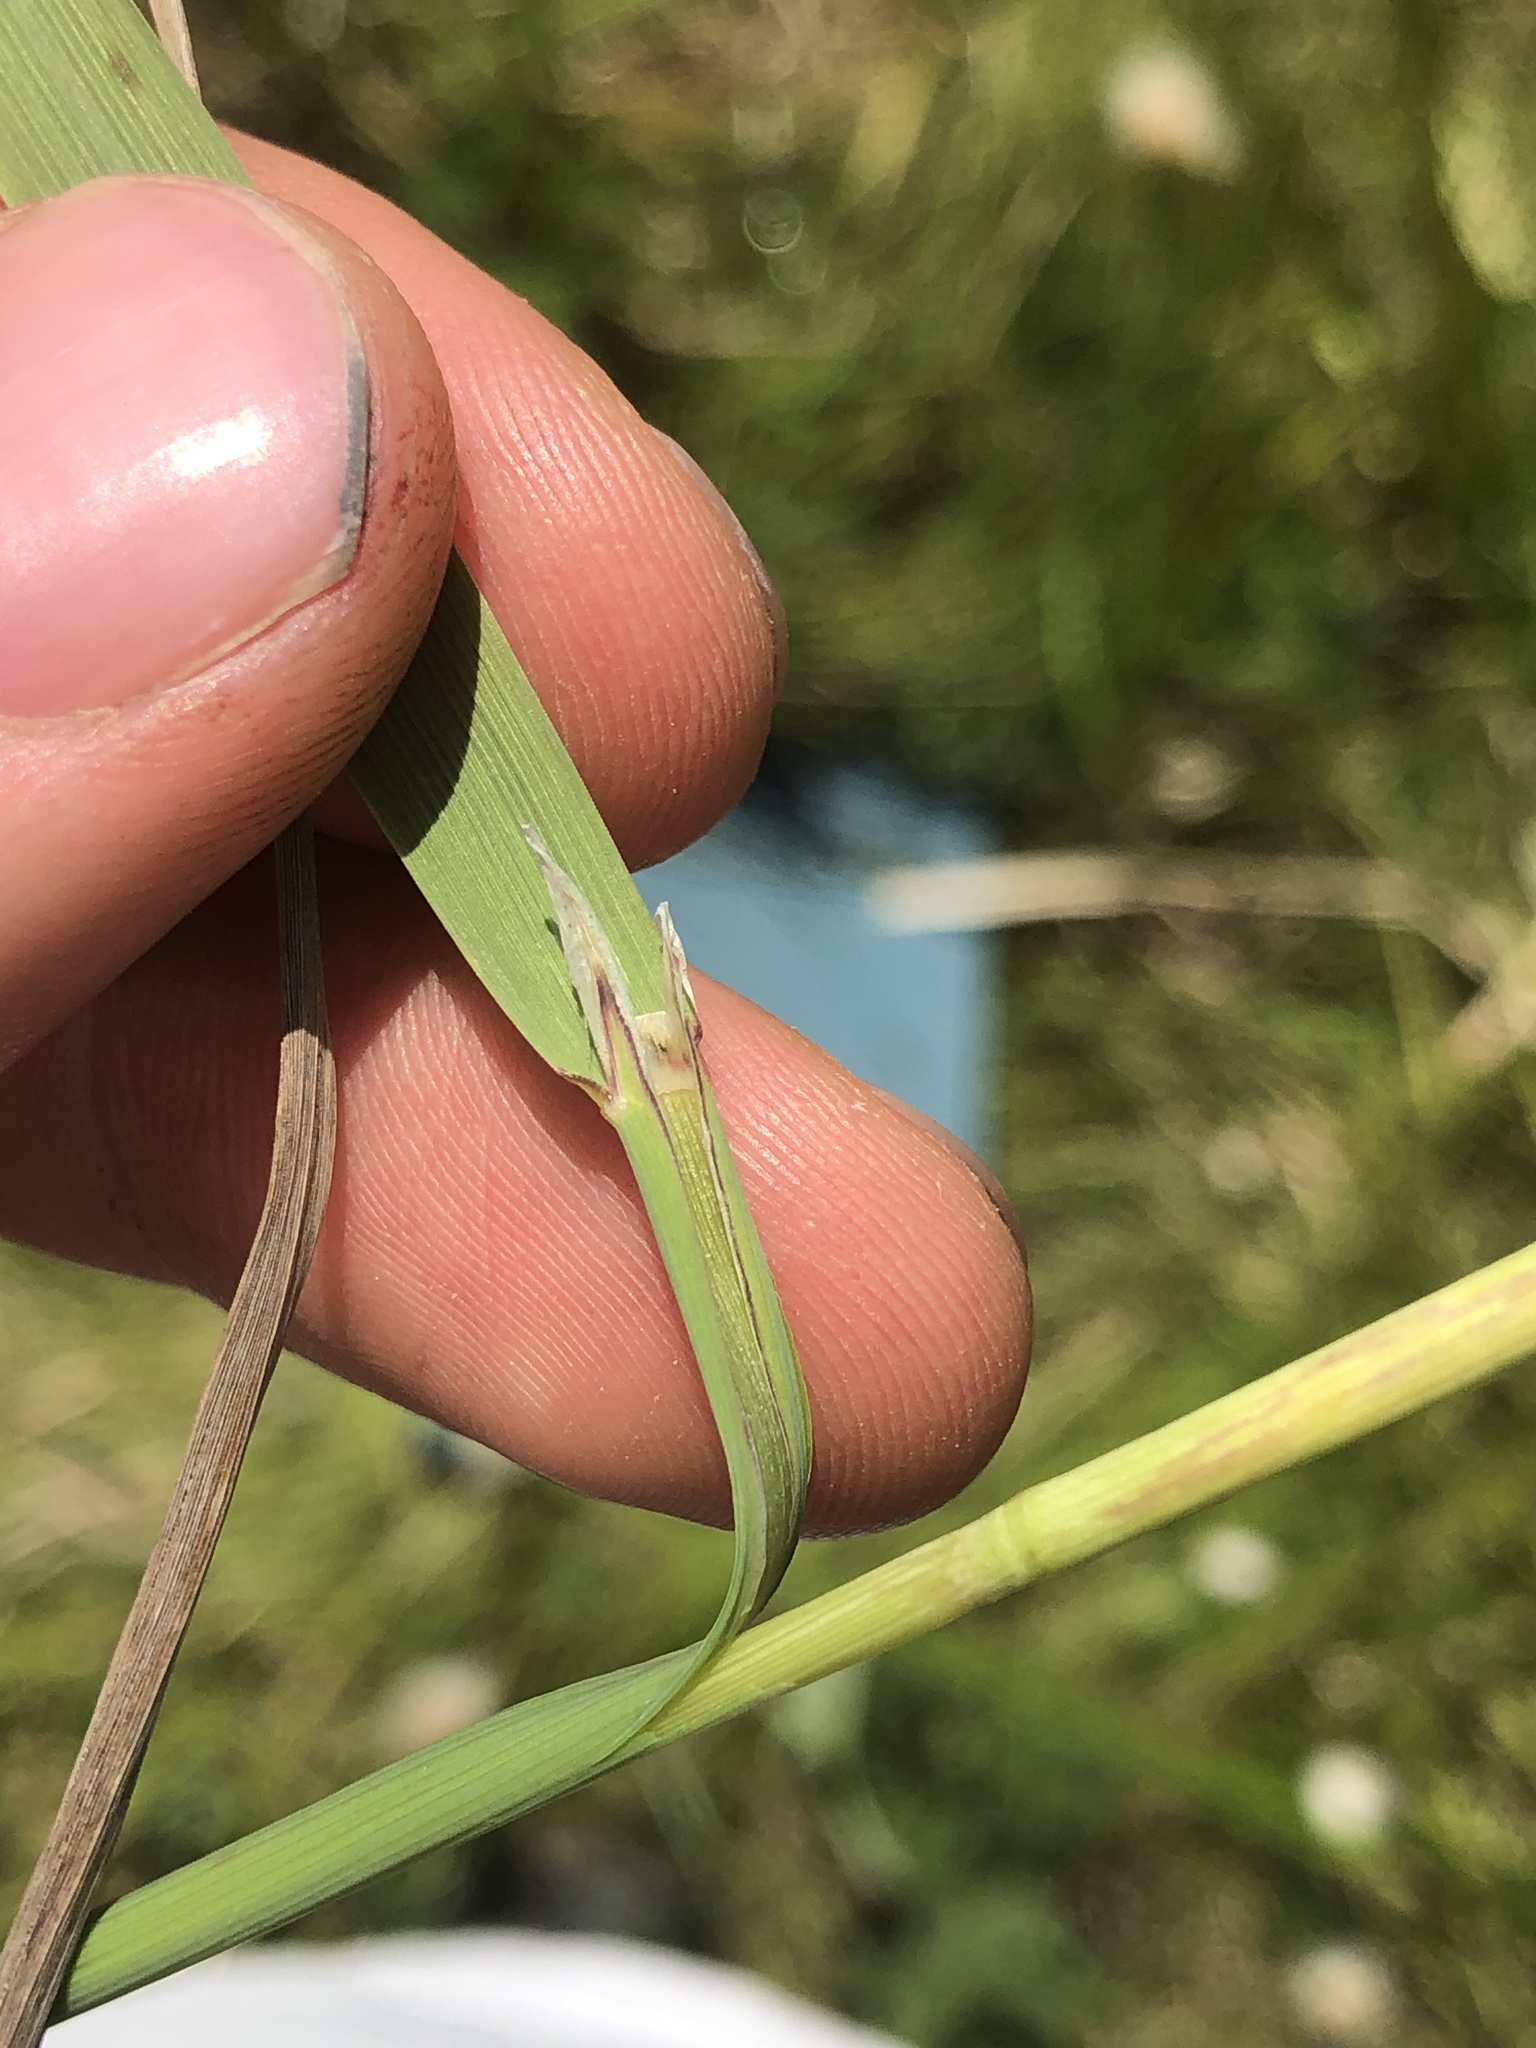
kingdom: Plantae
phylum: Tracheophyta
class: Liliopsida
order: Poales
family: Poaceae
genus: Calamagrostis
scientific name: Calamagrostis canadensis
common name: Canada bluejoint
